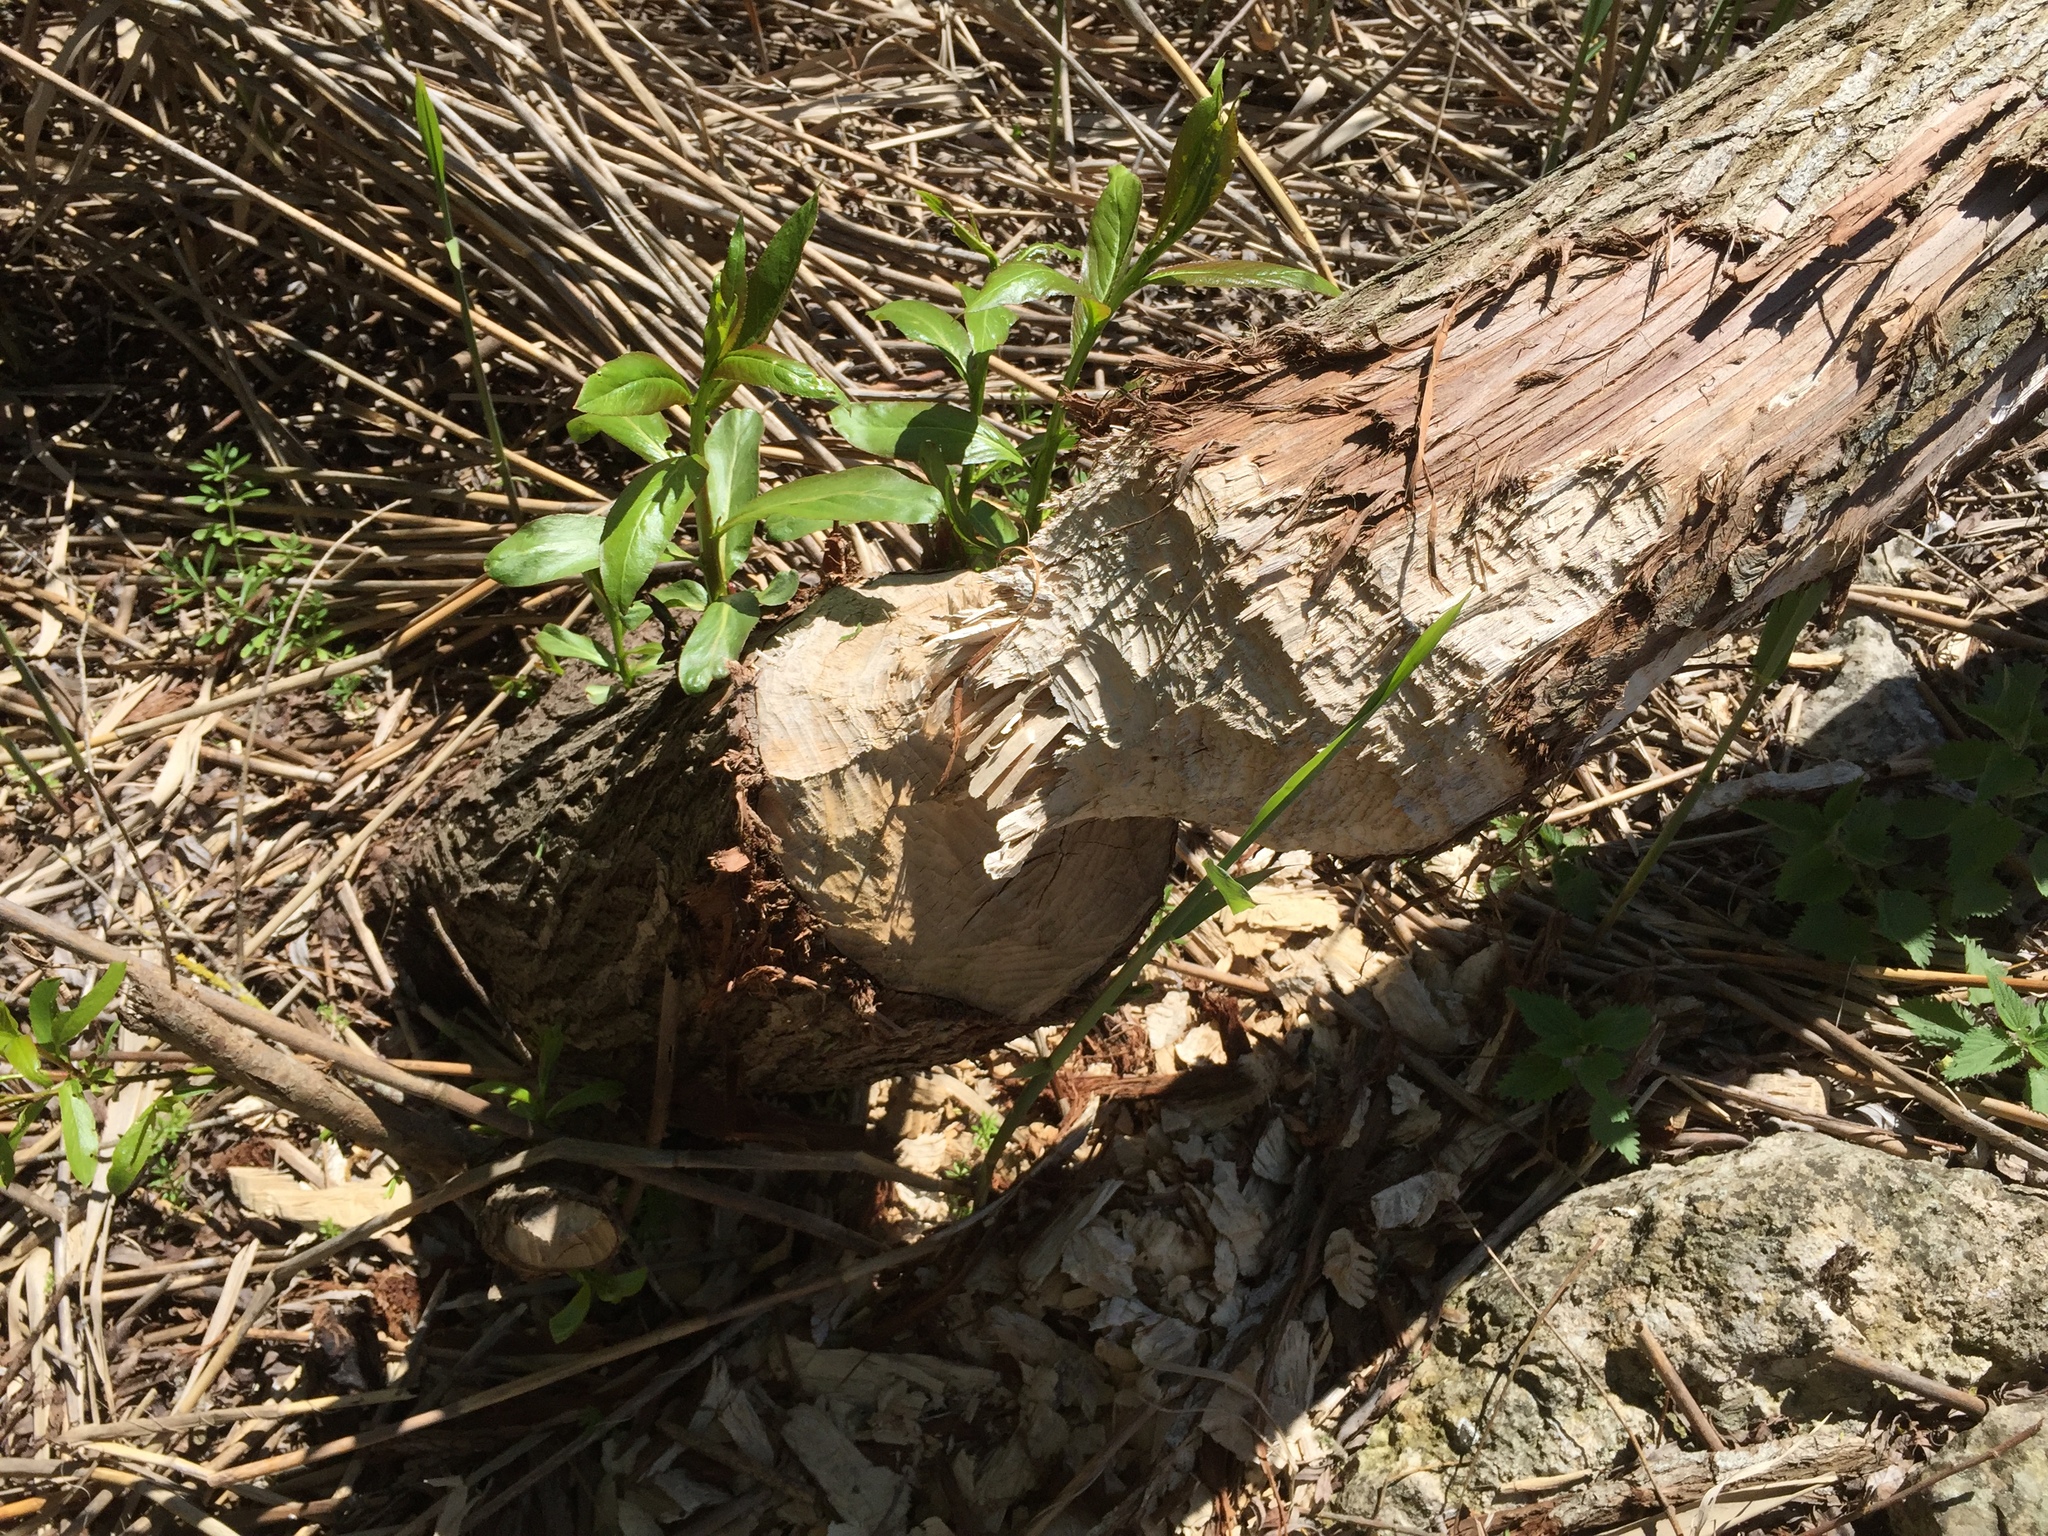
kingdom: Animalia
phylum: Chordata
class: Mammalia
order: Rodentia
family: Castoridae
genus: Castor
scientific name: Castor fiber
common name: Eurasian beaver
